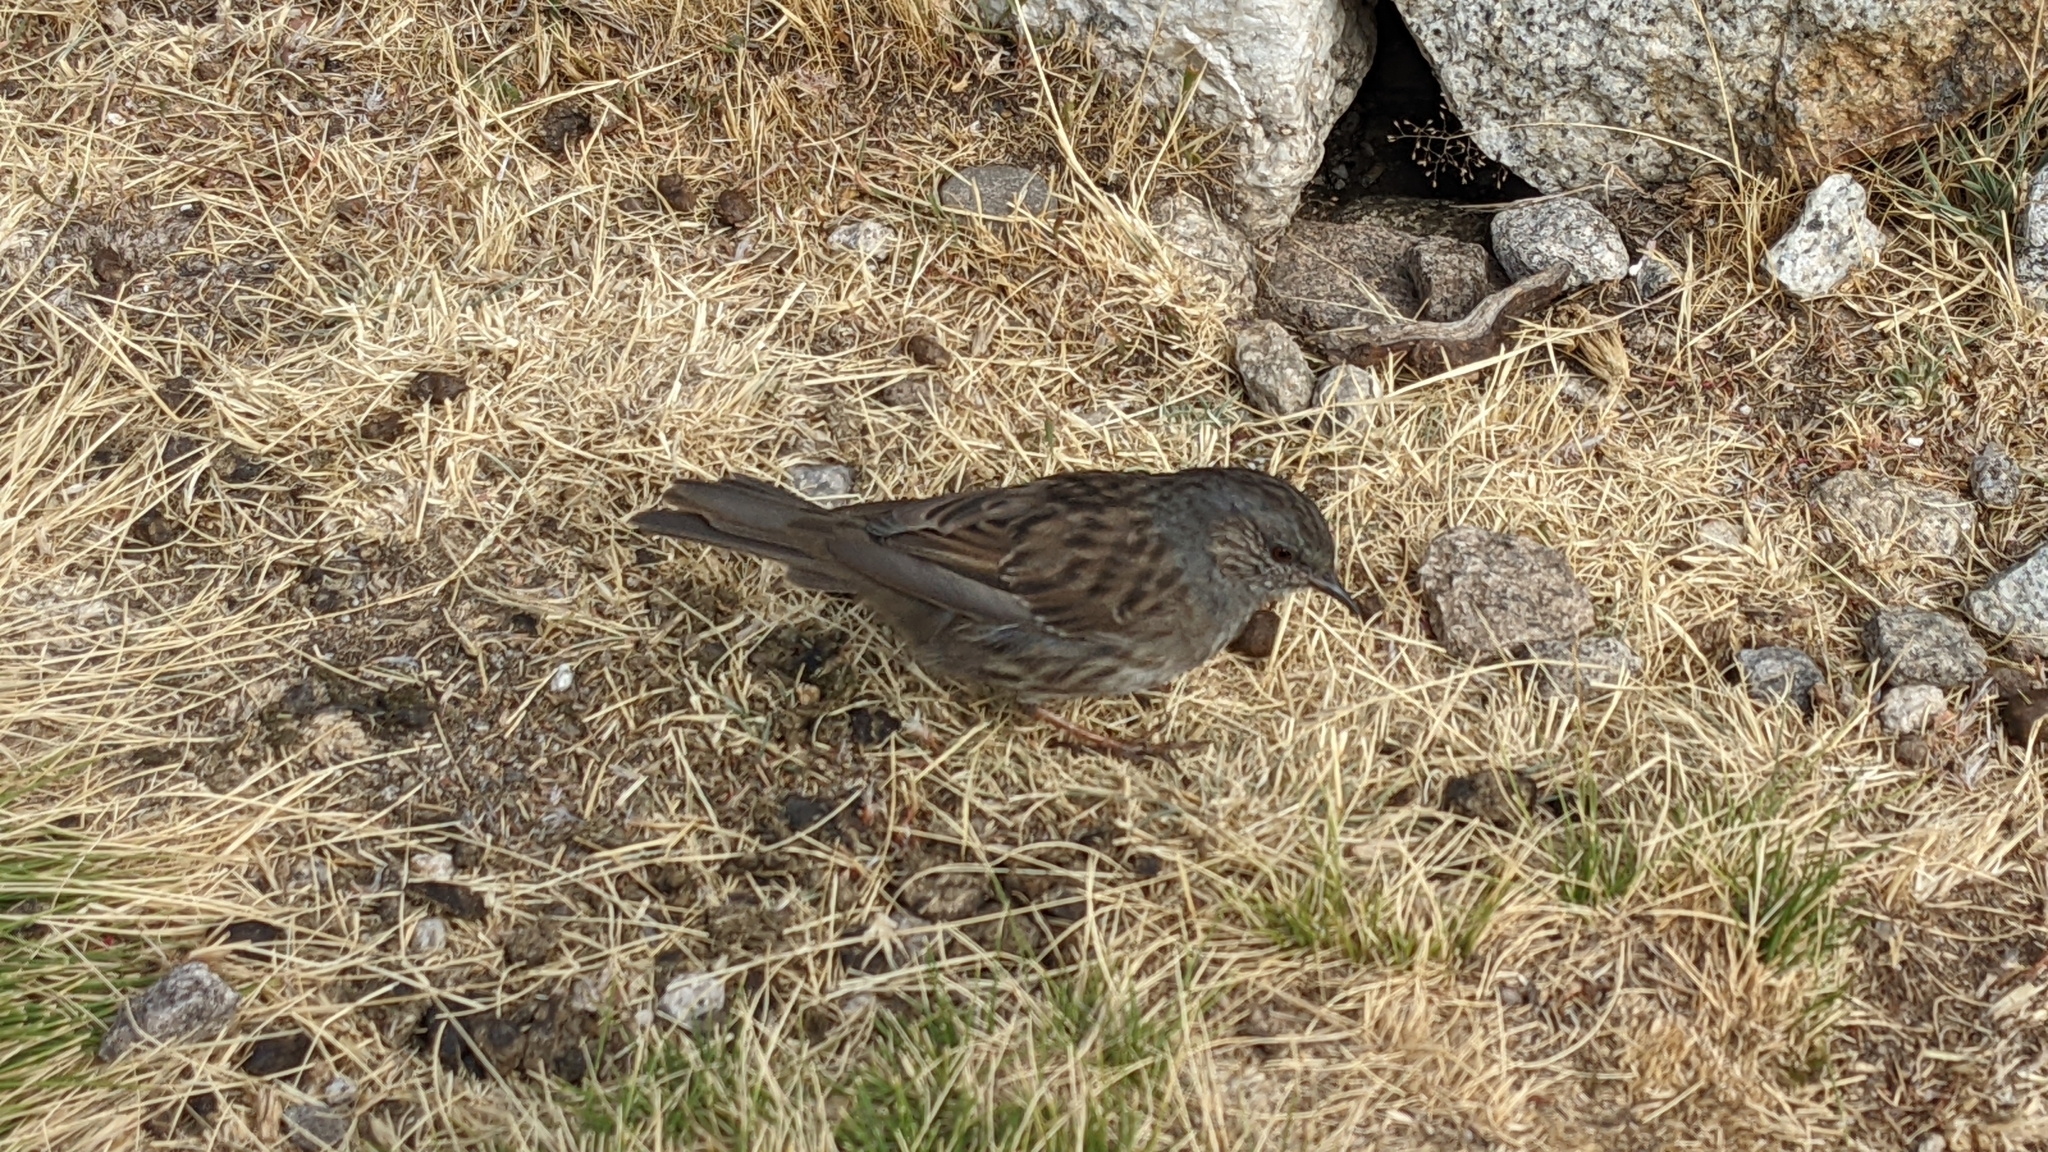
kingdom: Animalia
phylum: Chordata
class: Aves
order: Passeriformes
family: Prunellidae
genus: Prunella
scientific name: Prunella modularis
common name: Dunnock
